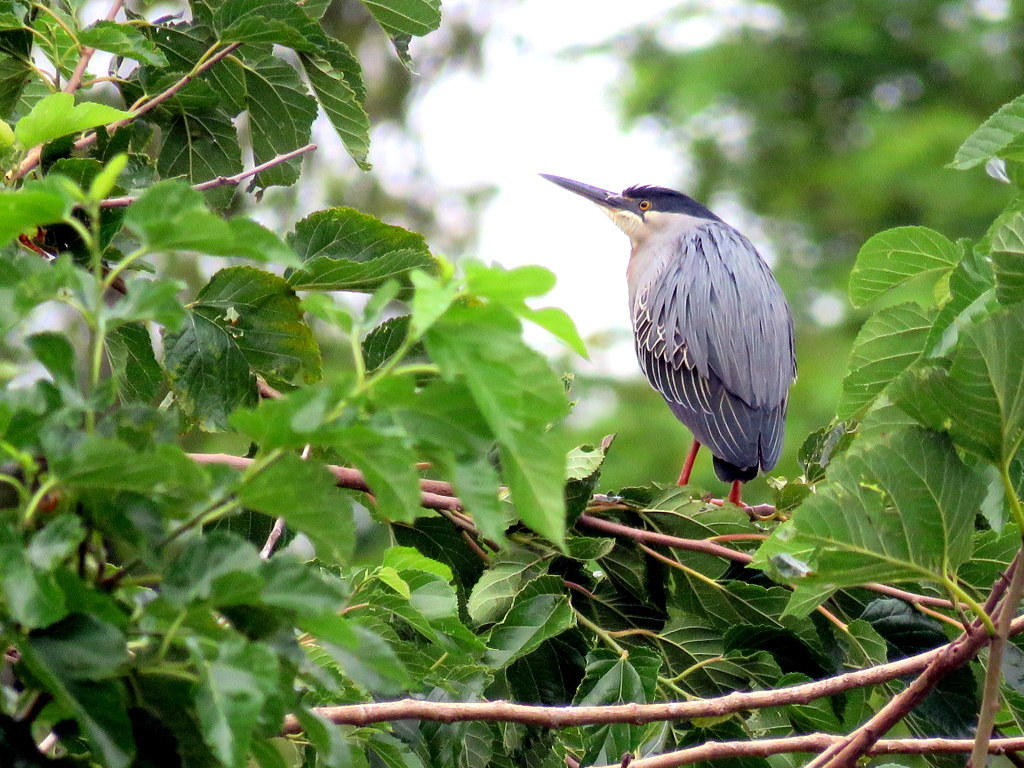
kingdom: Animalia
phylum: Chordata
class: Aves
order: Pelecaniformes
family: Ardeidae
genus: Butorides
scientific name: Butorides striata
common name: Striated heron
